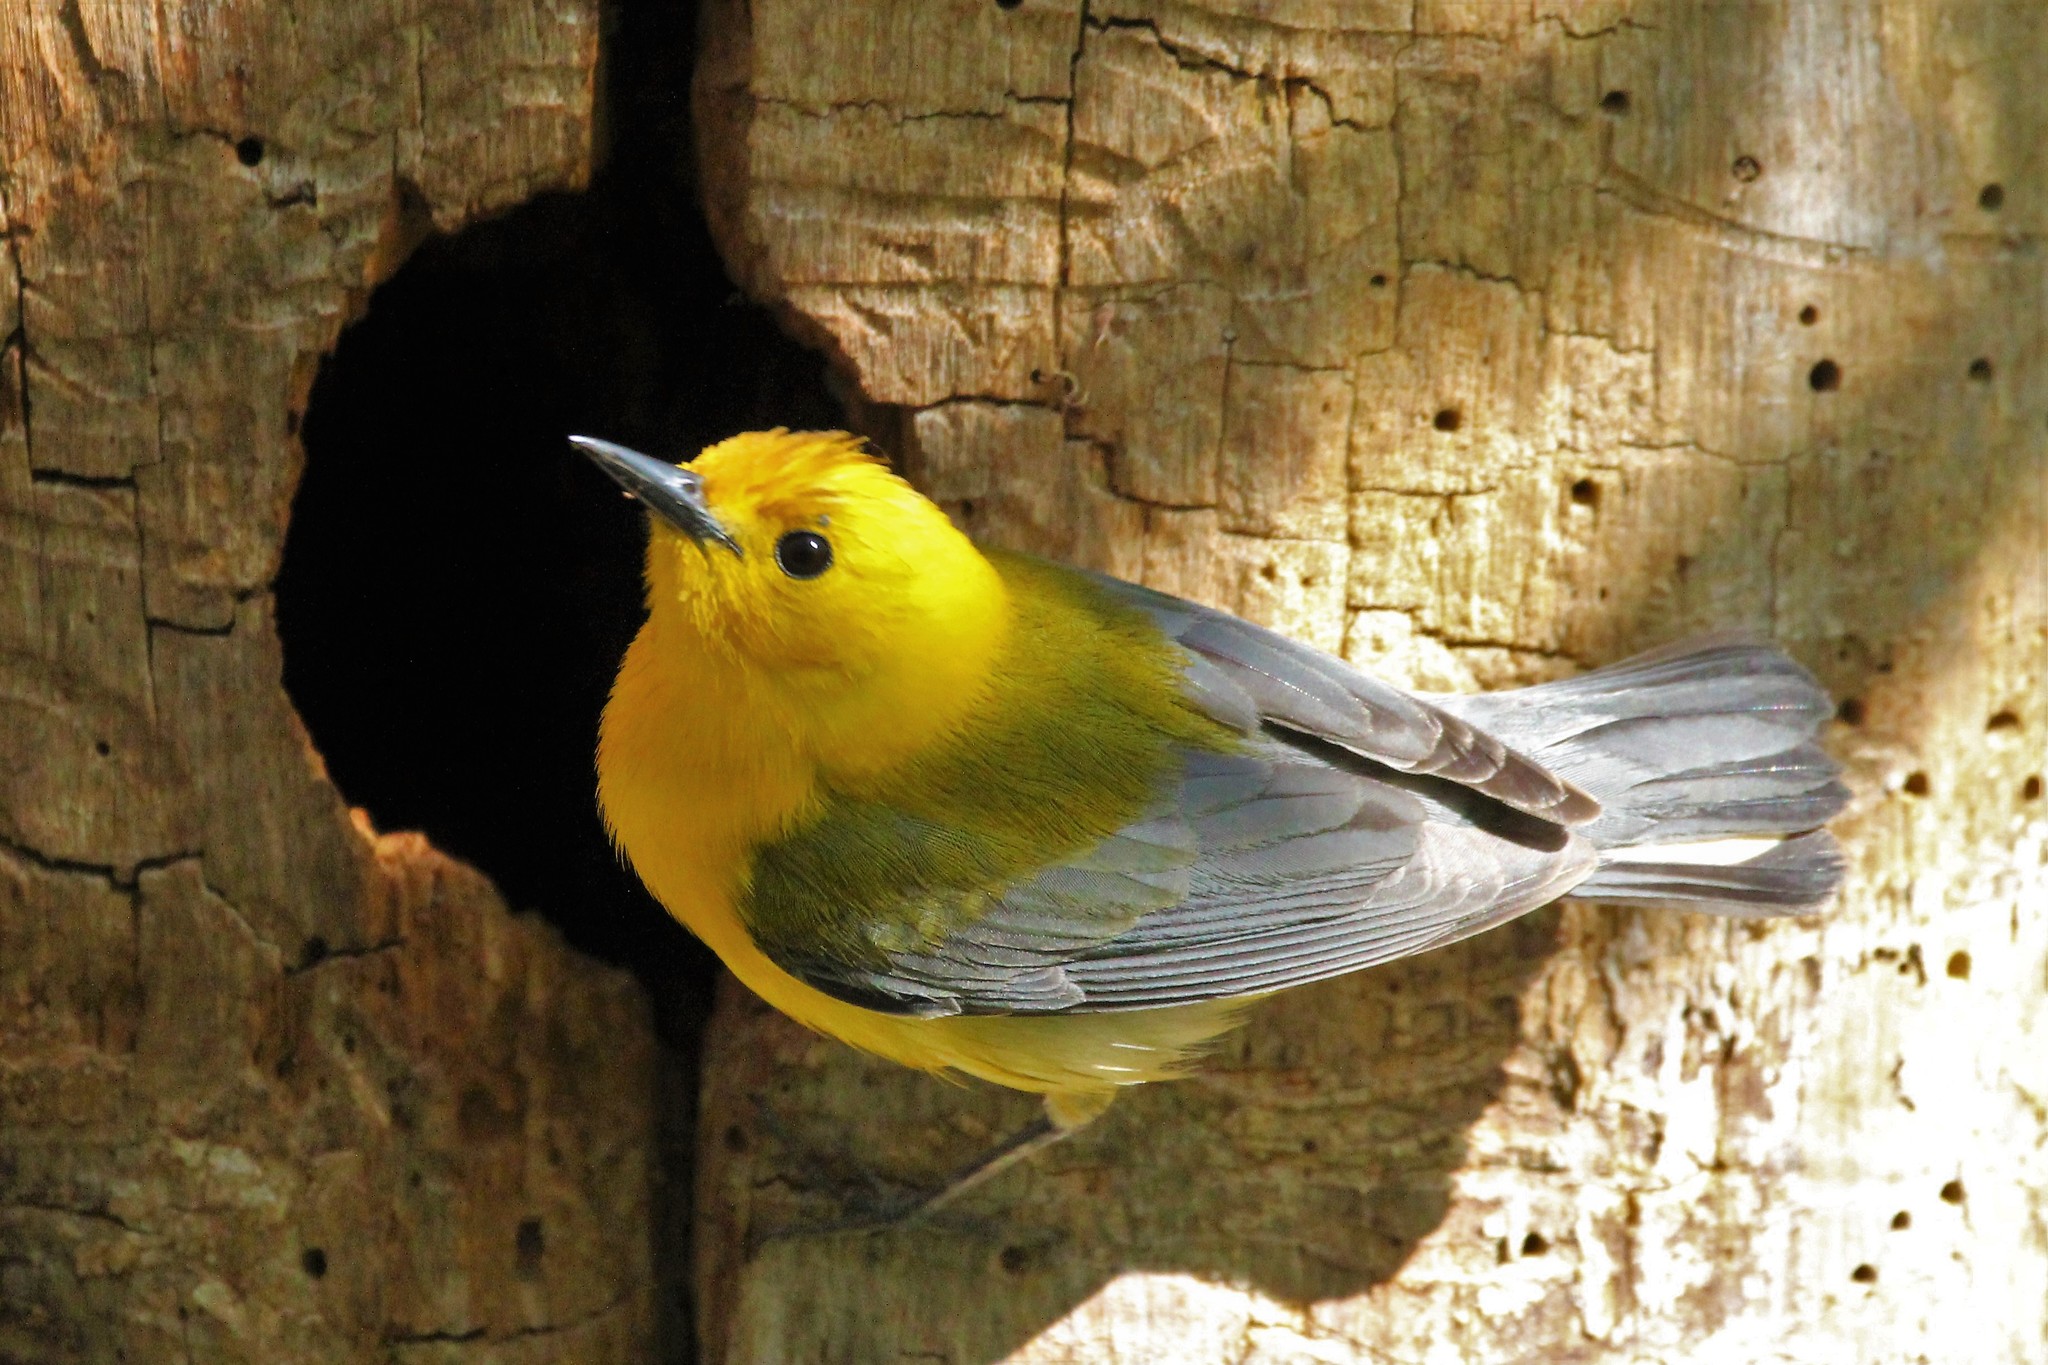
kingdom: Animalia
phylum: Chordata
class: Aves
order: Passeriformes
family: Parulidae
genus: Protonotaria
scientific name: Protonotaria citrea
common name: Prothonotary warbler
